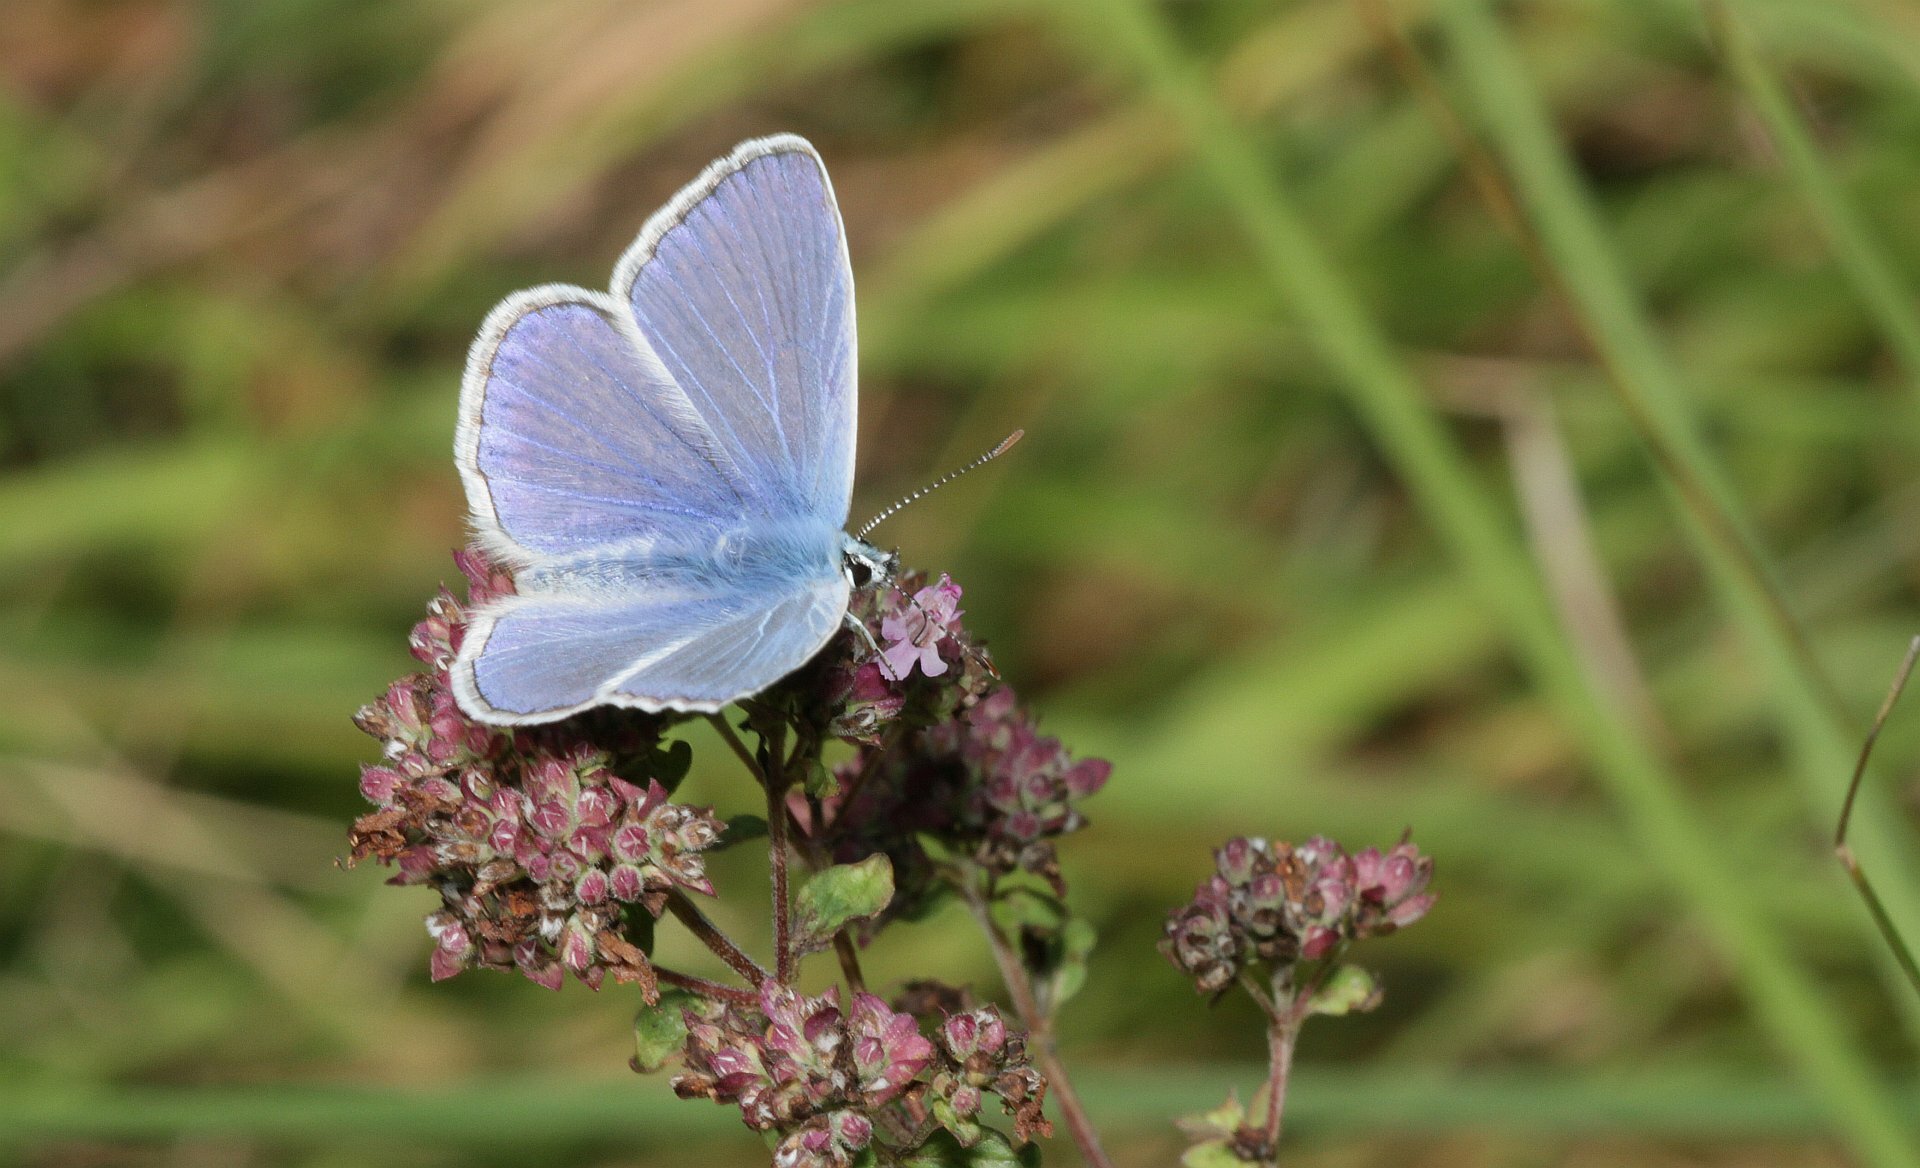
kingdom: Animalia
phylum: Arthropoda
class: Insecta
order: Lepidoptera
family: Lycaenidae
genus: Polyommatus
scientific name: Polyommatus icarus
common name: Common blue
